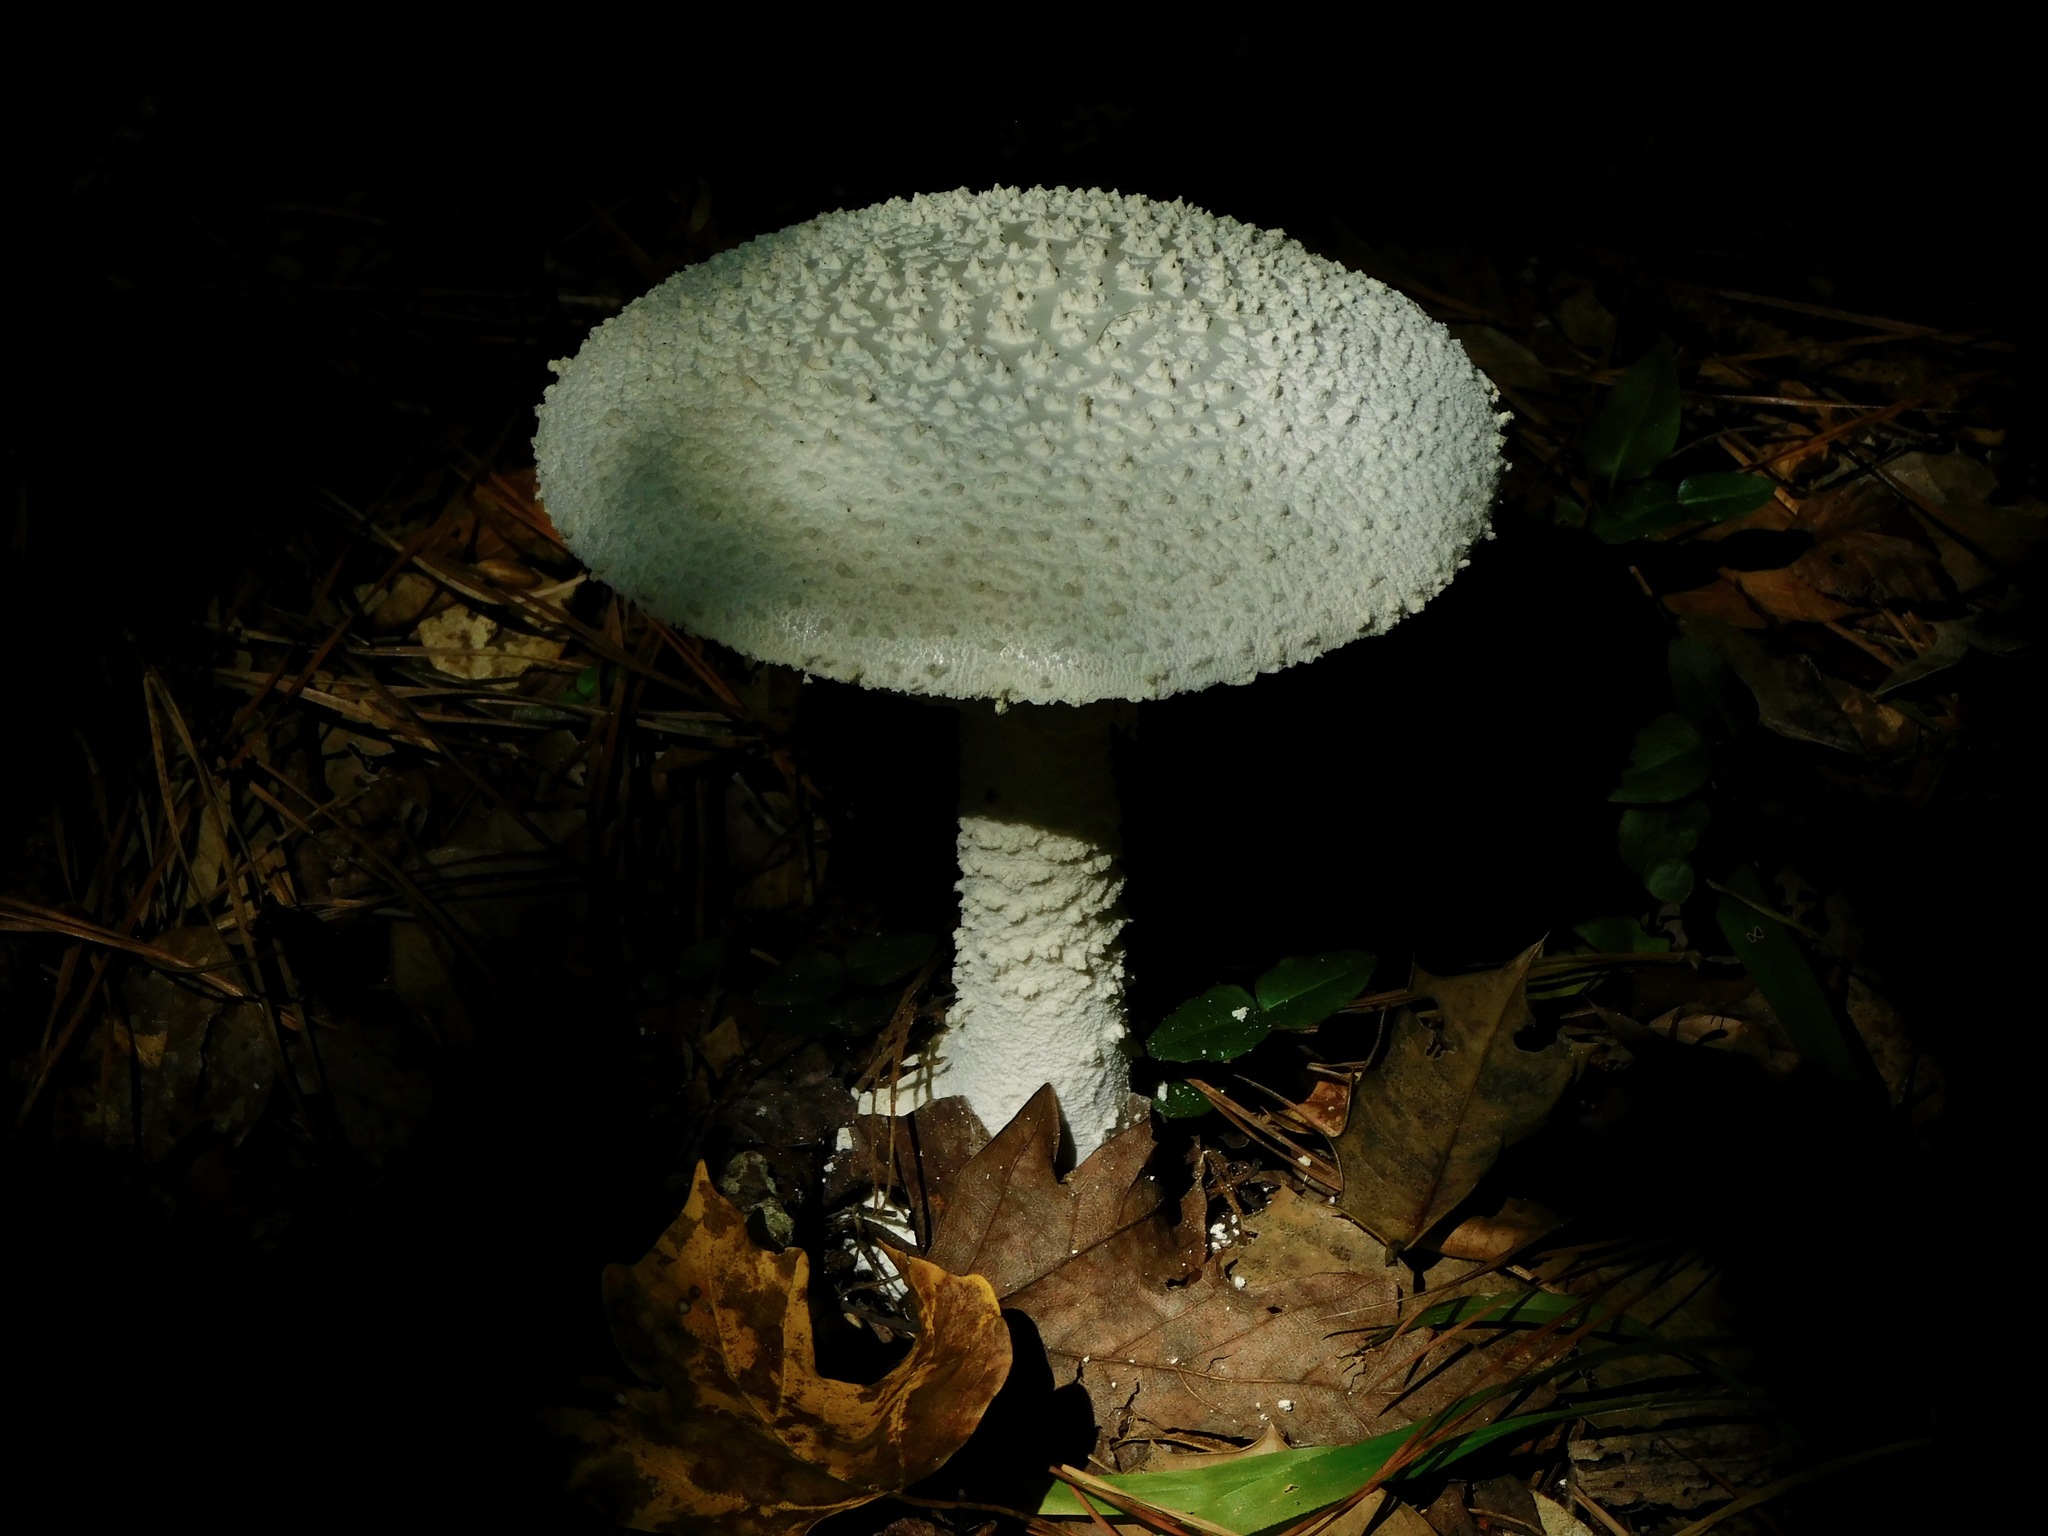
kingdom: Fungi
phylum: Basidiomycota
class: Agaricomycetes
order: Agaricales
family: Amanitaceae
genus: Amanita
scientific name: Amanita polypyramis
